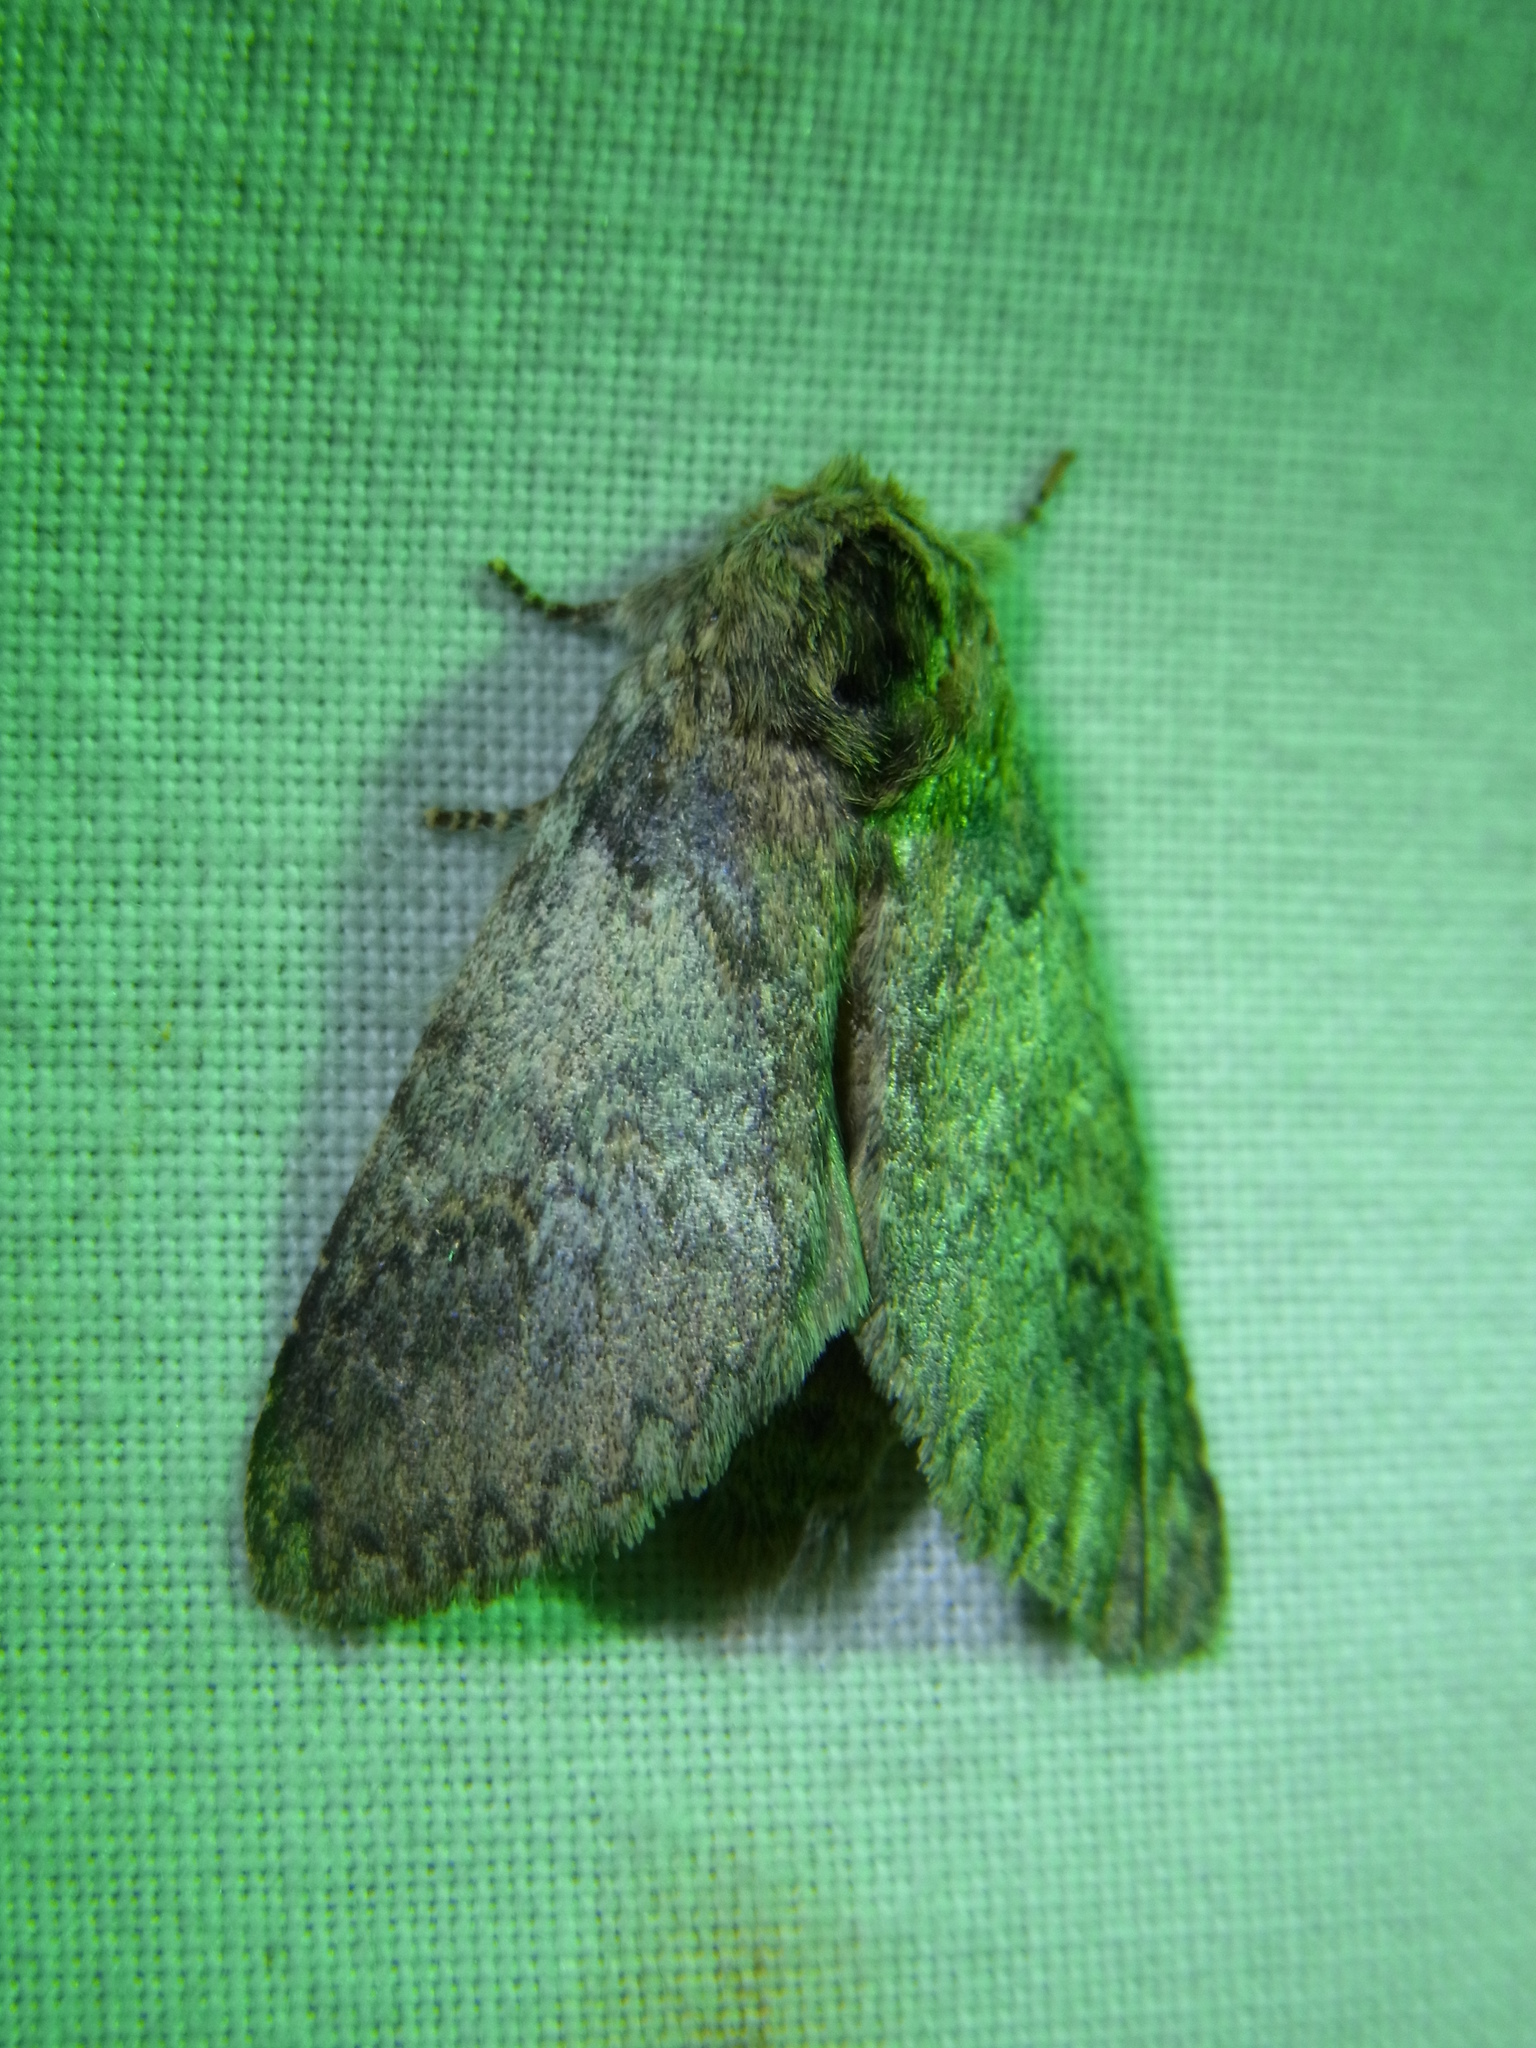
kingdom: Animalia
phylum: Arthropoda
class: Insecta
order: Lepidoptera
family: Notodontidae
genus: Disparia
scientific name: Disparia diluta
